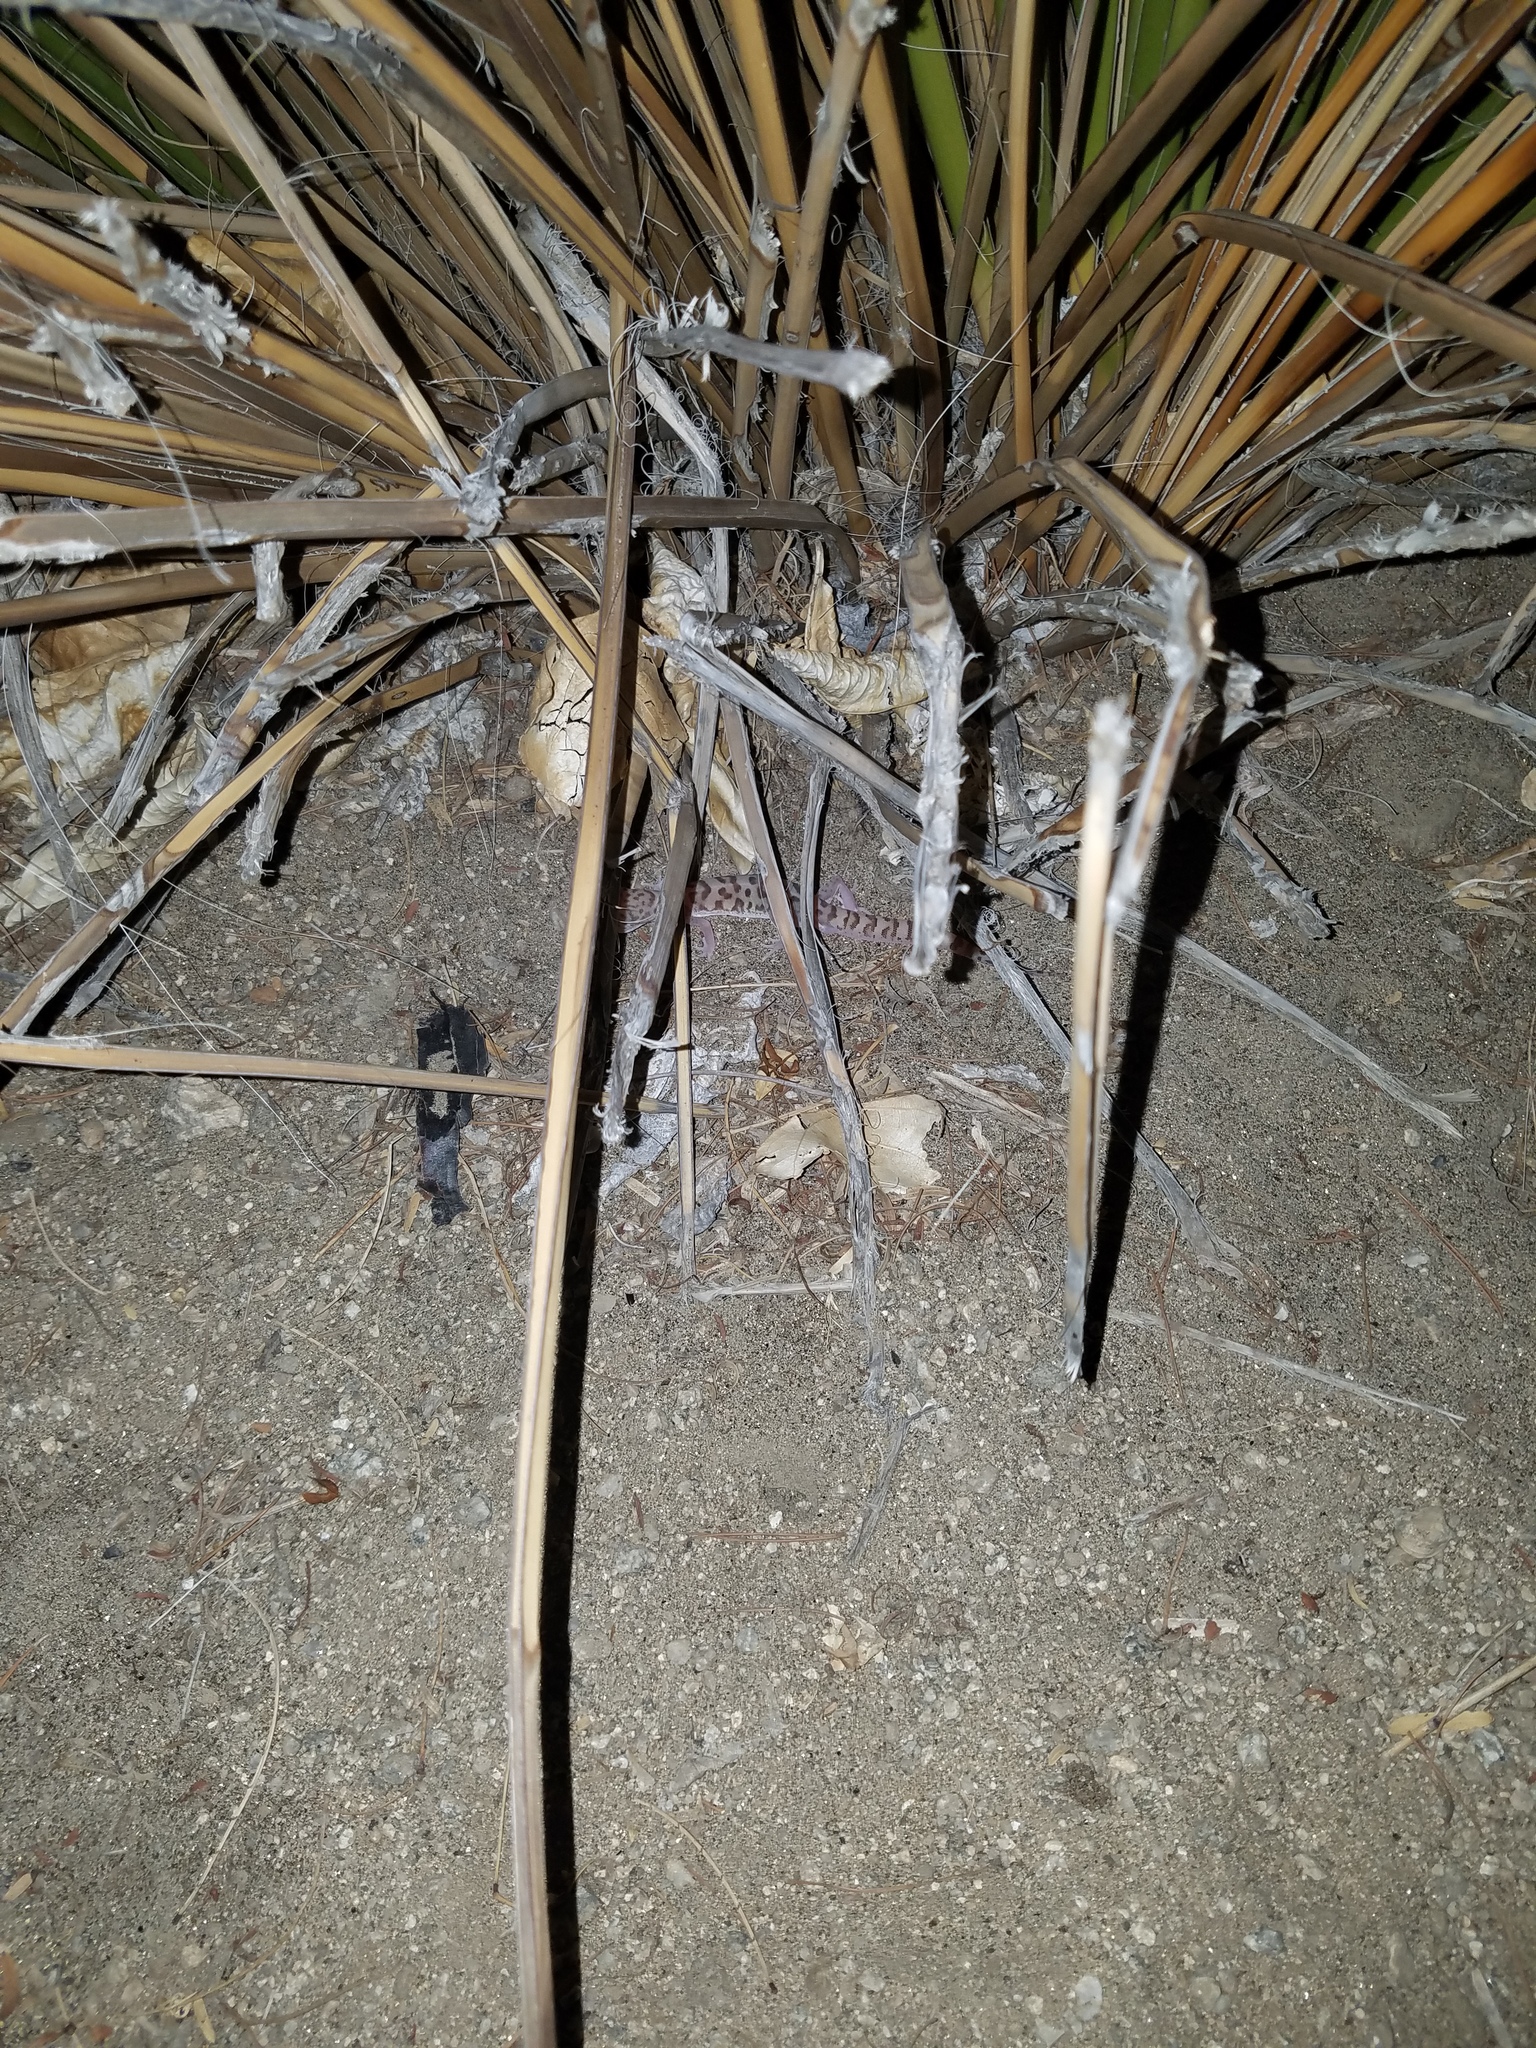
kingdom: Animalia
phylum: Chordata
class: Squamata
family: Eublepharidae
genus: Coleonyx
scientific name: Coleonyx variegatus
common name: Western banded gecko
